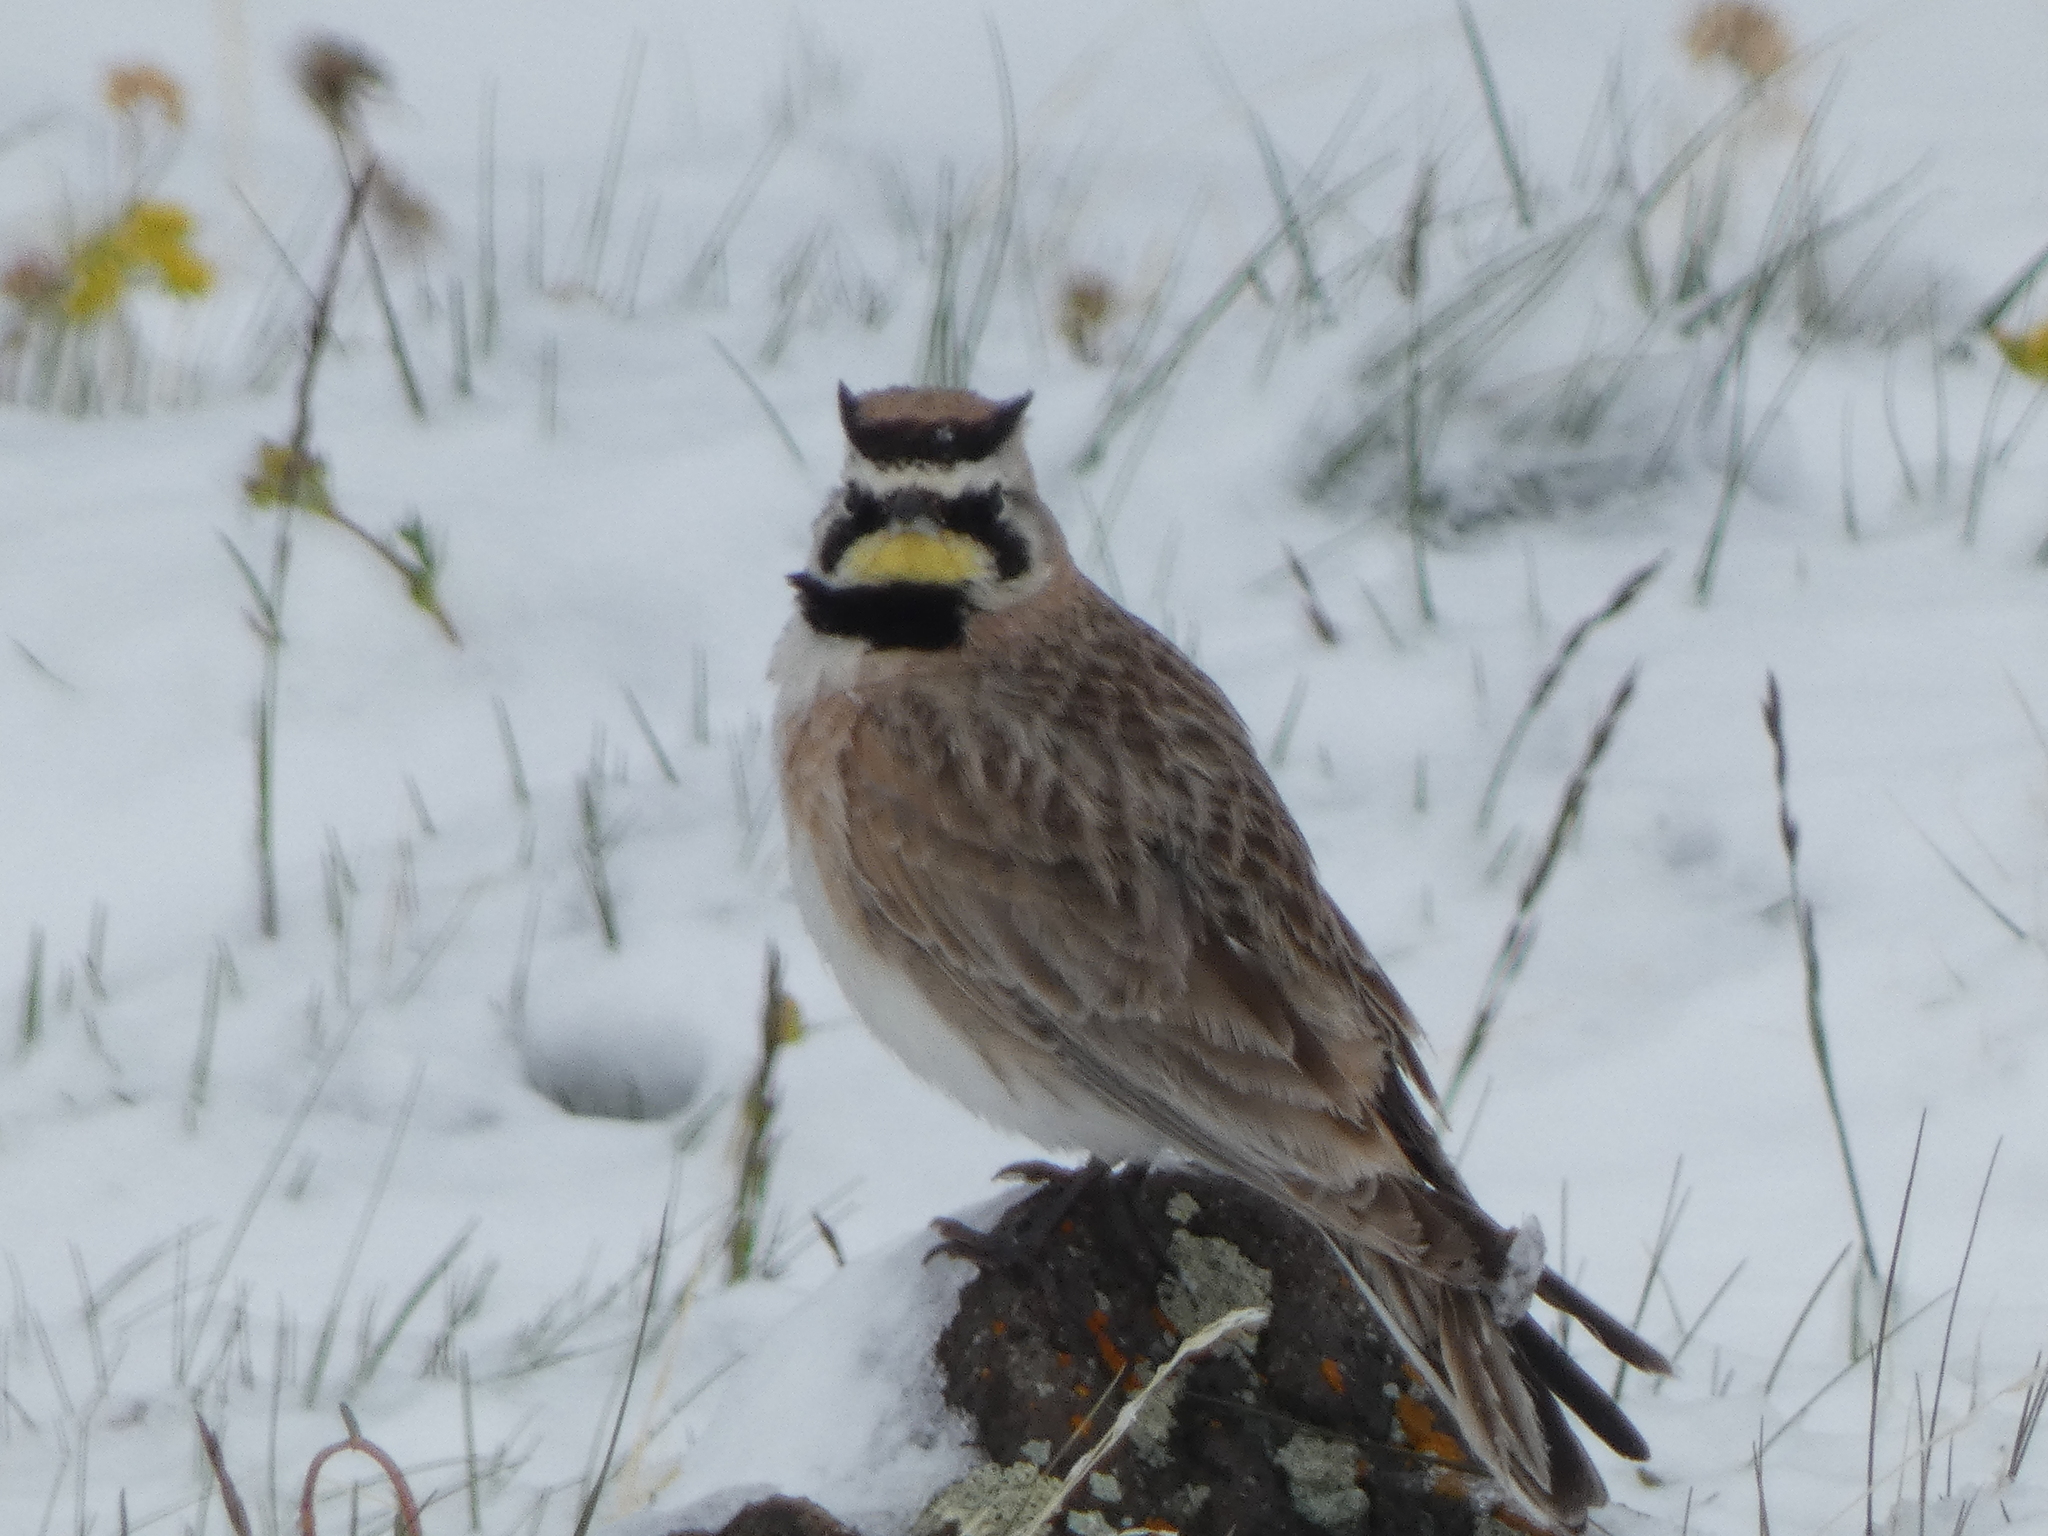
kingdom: Animalia
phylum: Chordata
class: Aves
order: Passeriformes
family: Alaudidae
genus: Eremophila
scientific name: Eremophila alpestris
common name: Horned lark
